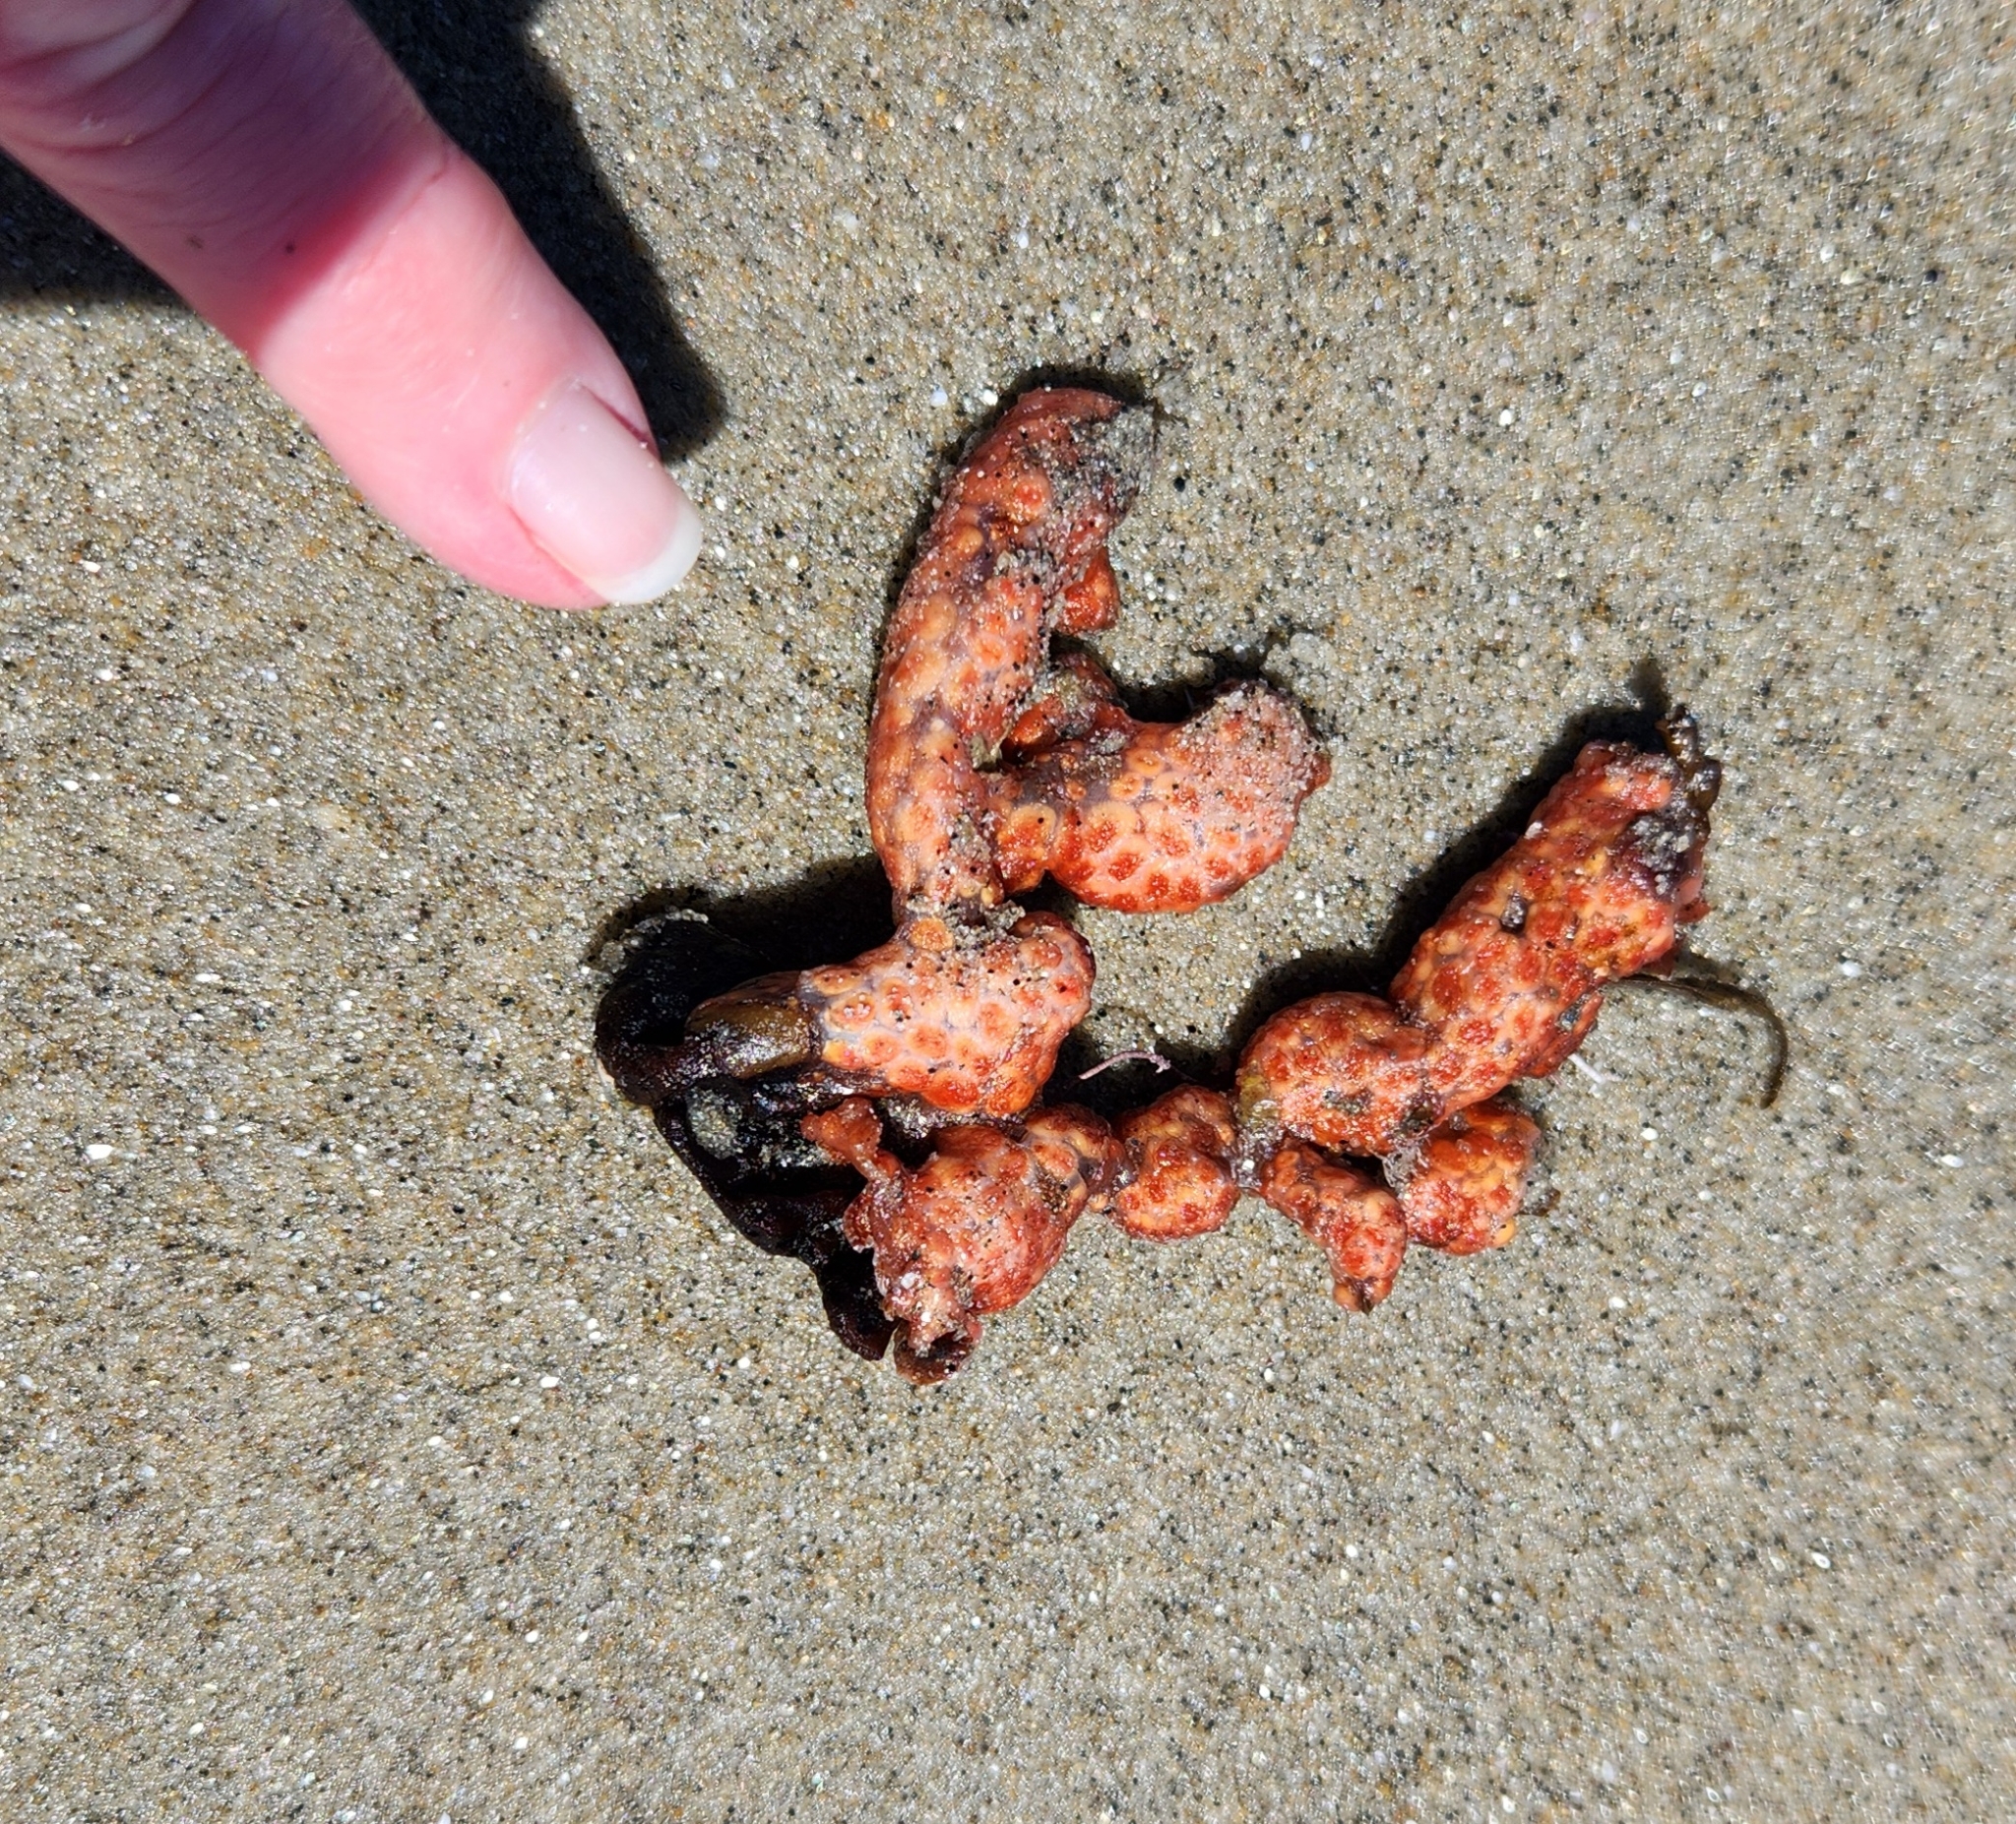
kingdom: Animalia
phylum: Chordata
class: Ascidiacea
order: Stolidobranchia
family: Styelidae
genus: Metandrocarpa
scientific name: Metandrocarpa dura
